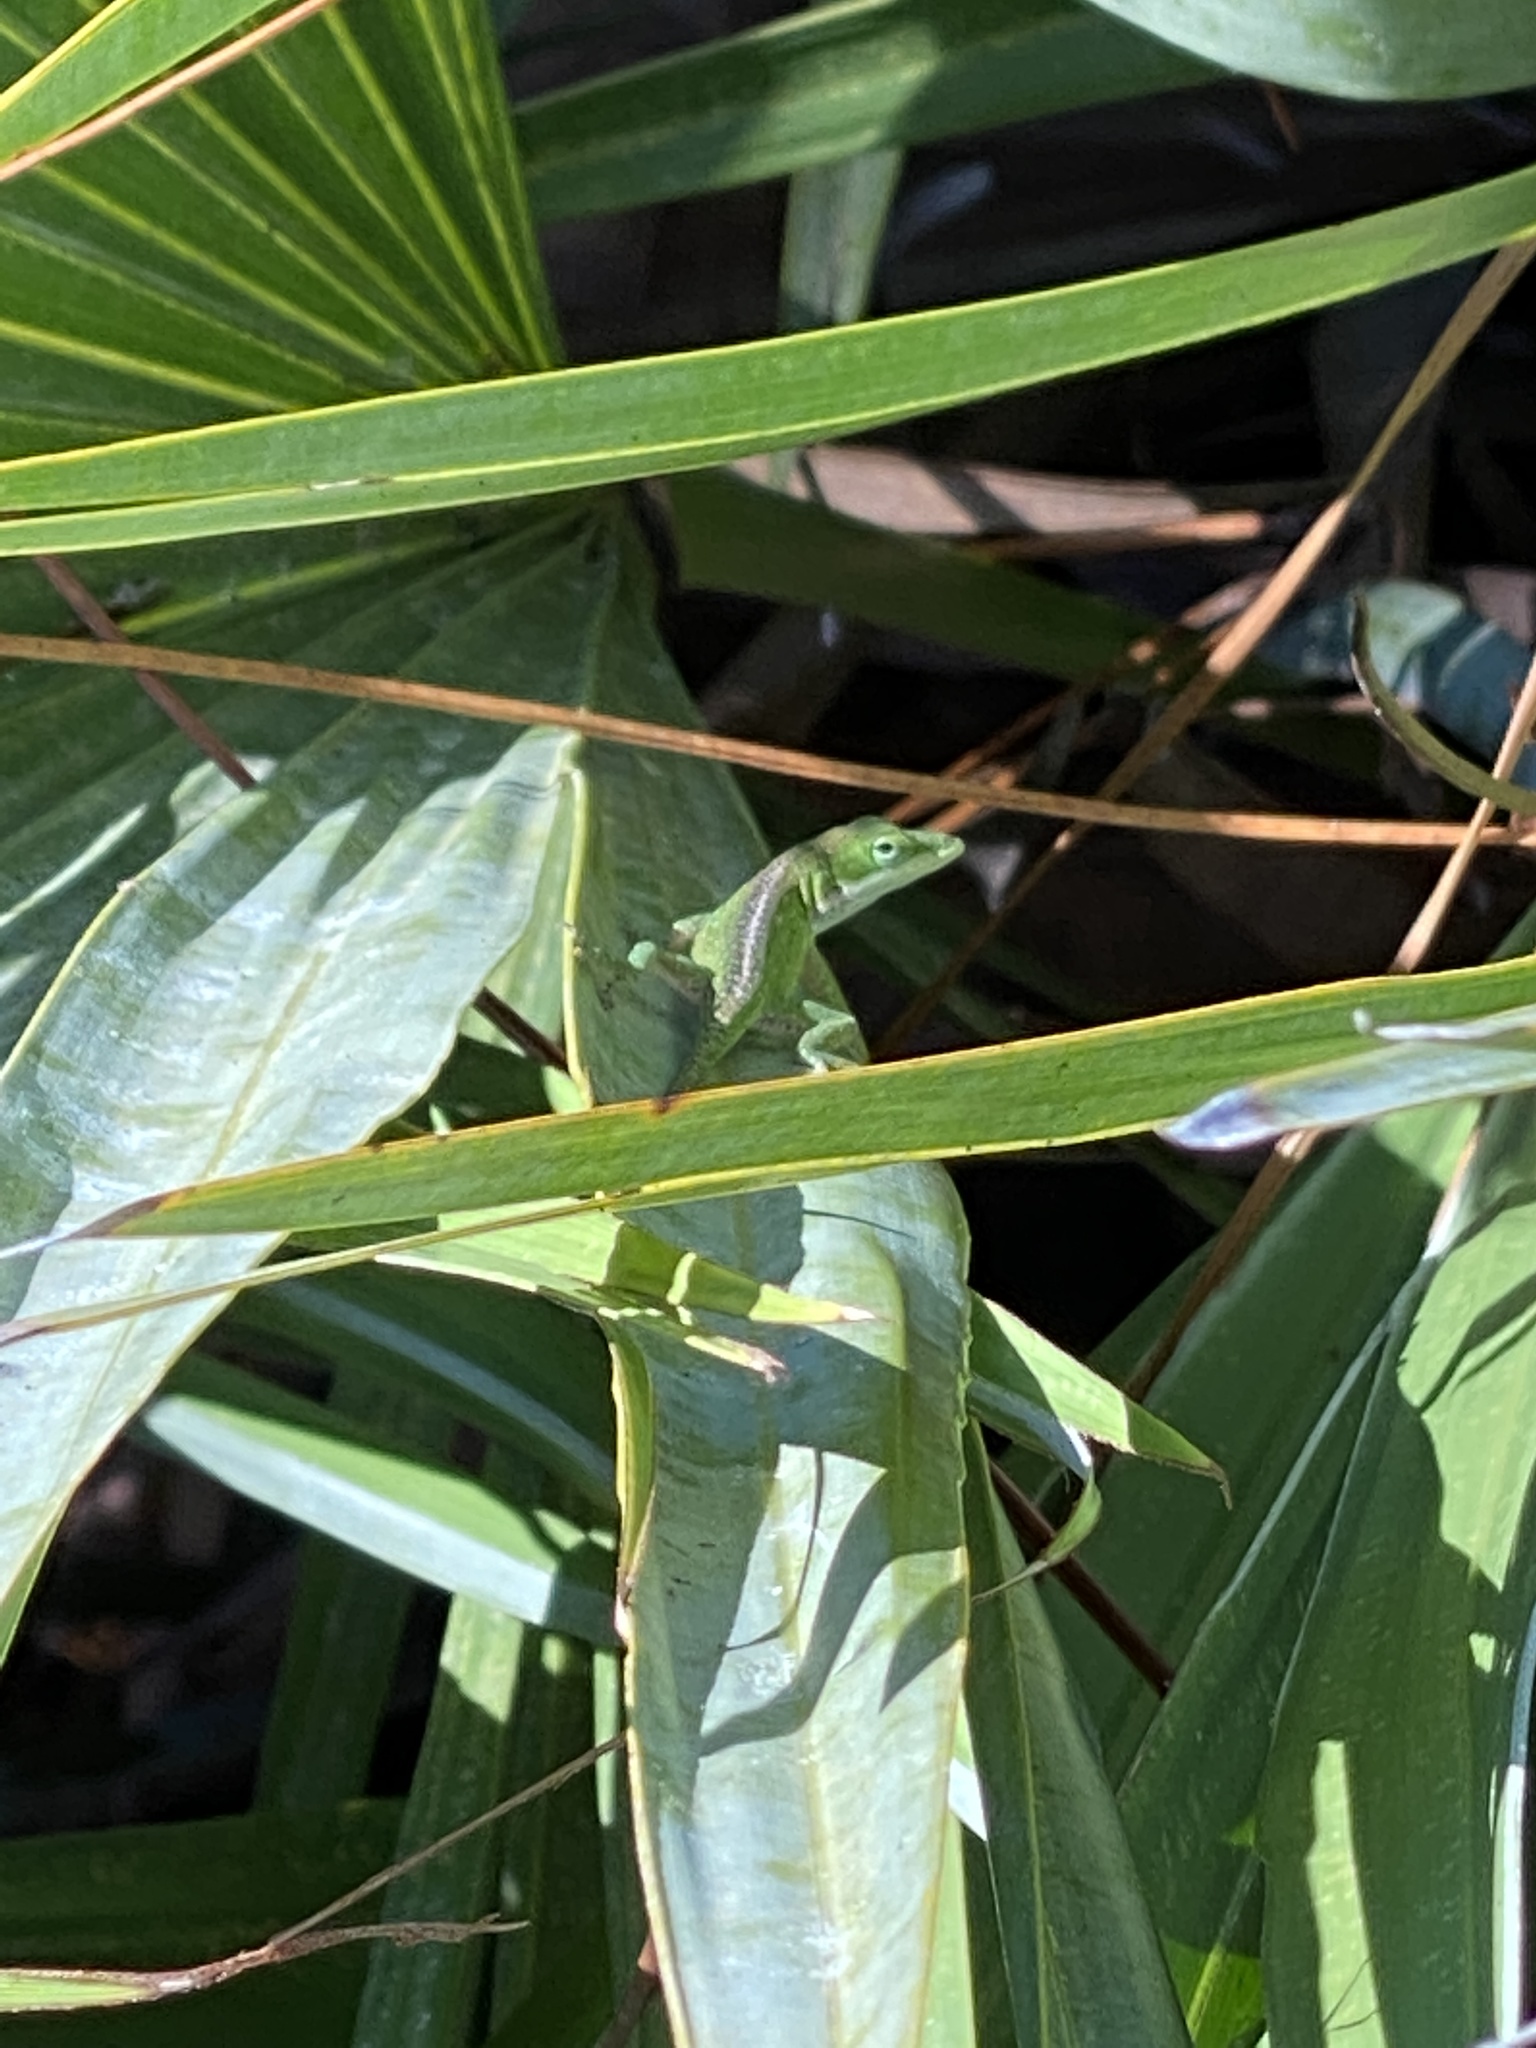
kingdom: Animalia
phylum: Chordata
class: Squamata
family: Dactyloidae
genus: Anolis
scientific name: Anolis carolinensis
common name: Green anole
